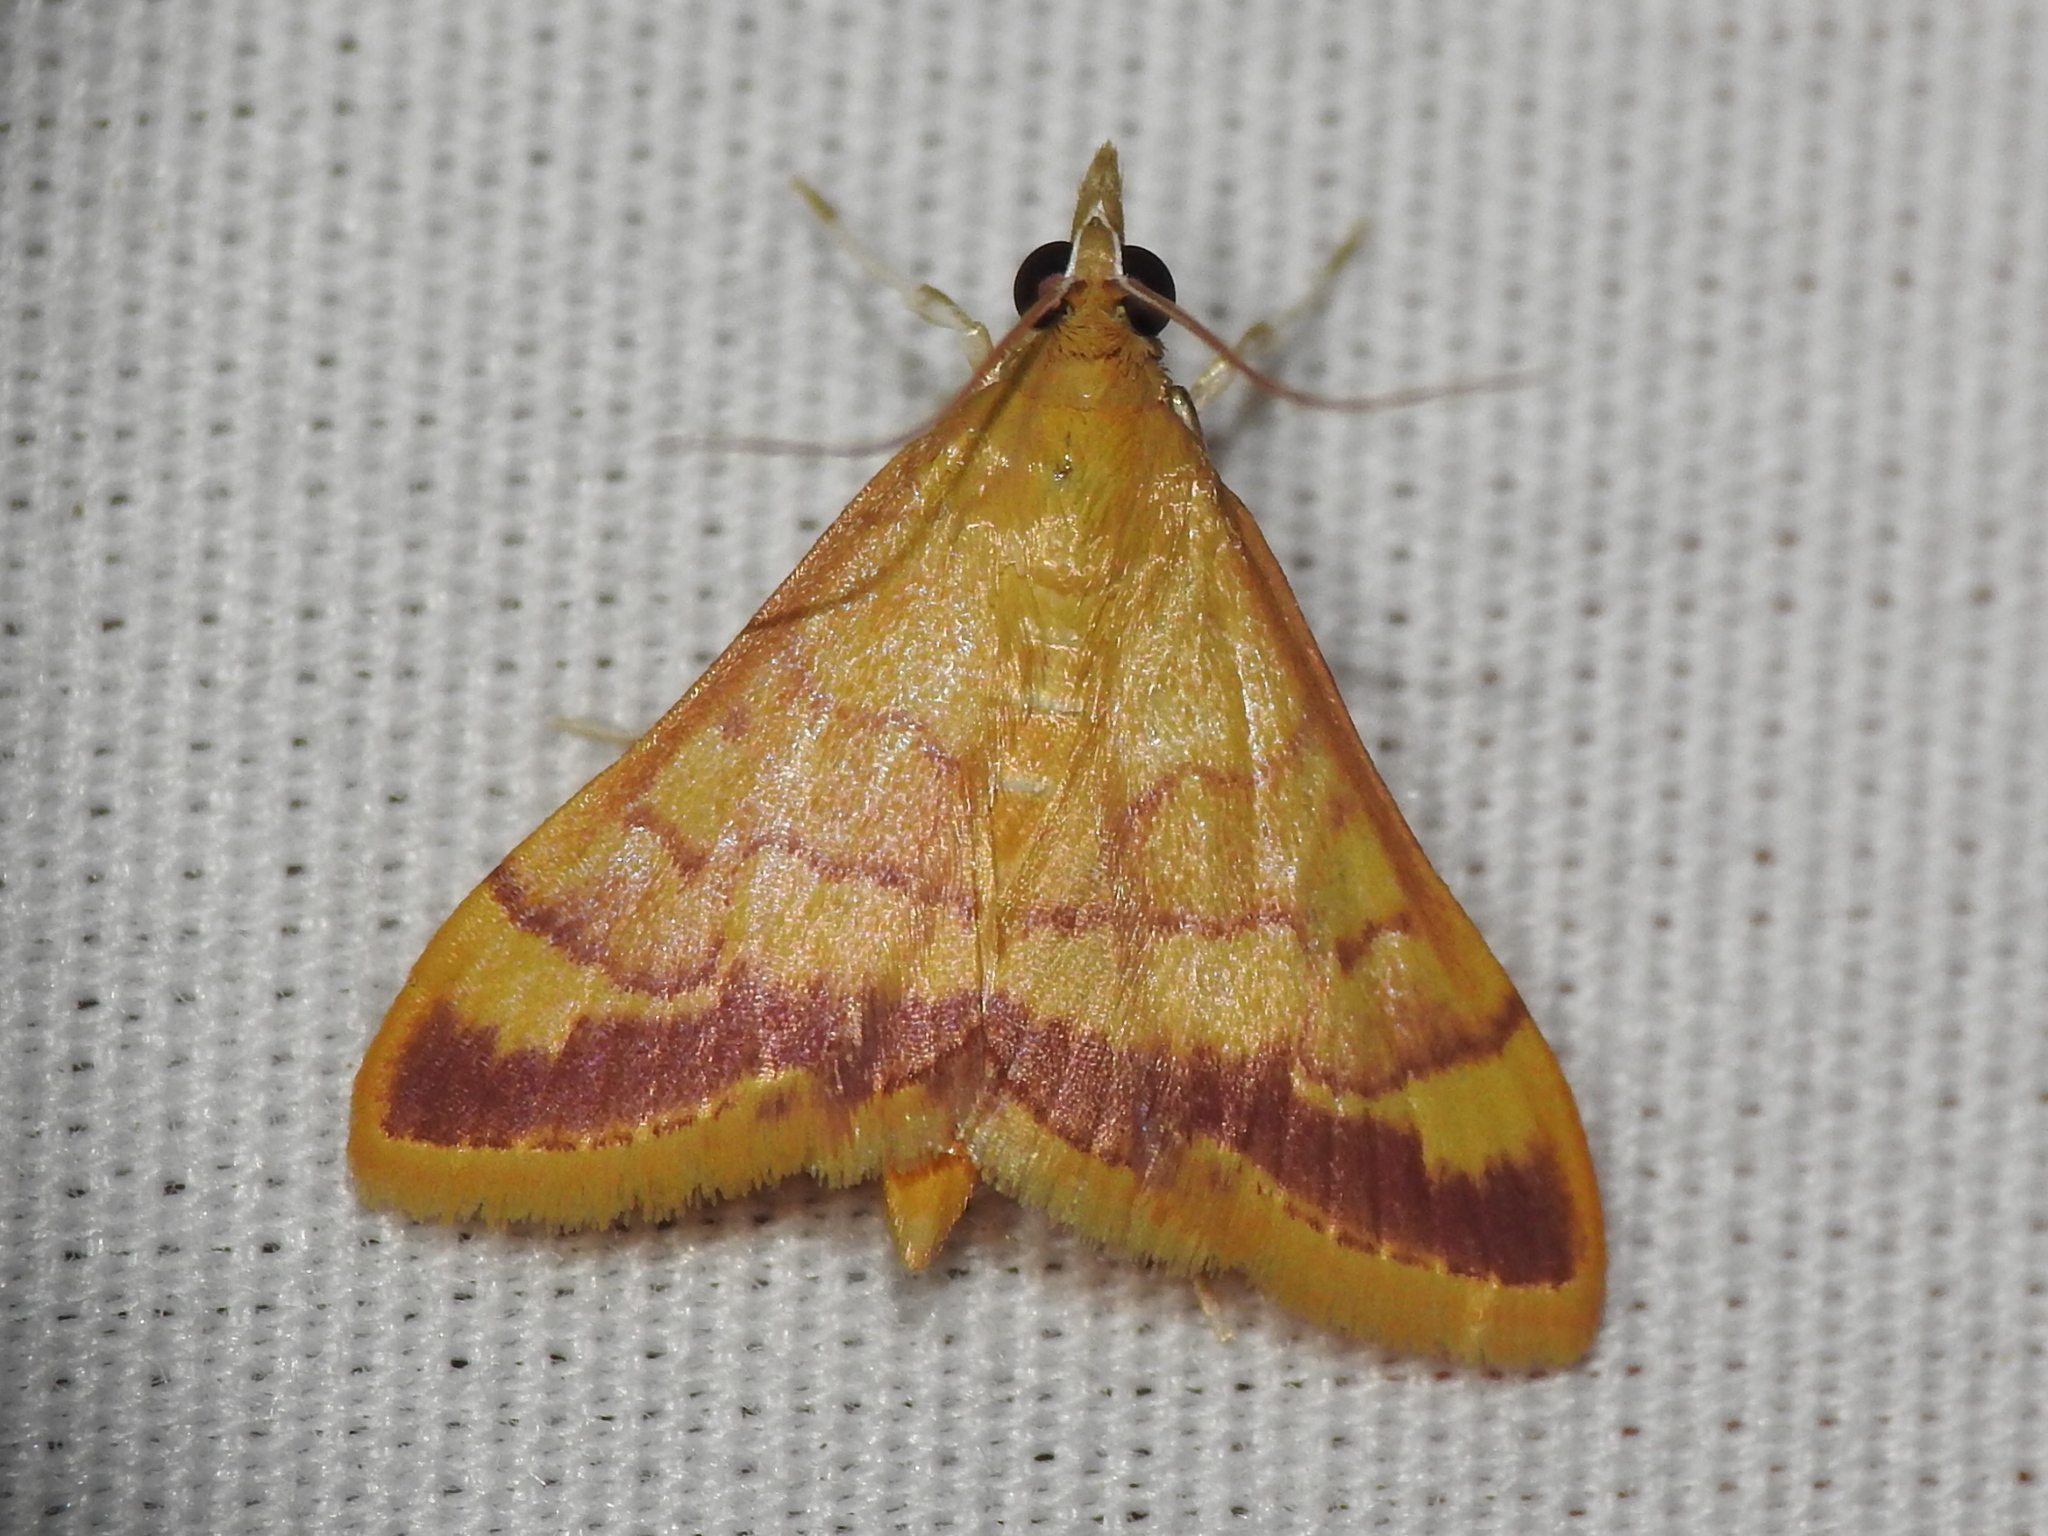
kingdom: Animalia
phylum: Arthropoda
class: Insecta
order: Lepidoptera
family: Crambidae
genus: Pyrausta
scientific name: Pyrausta pseudonythesalis
